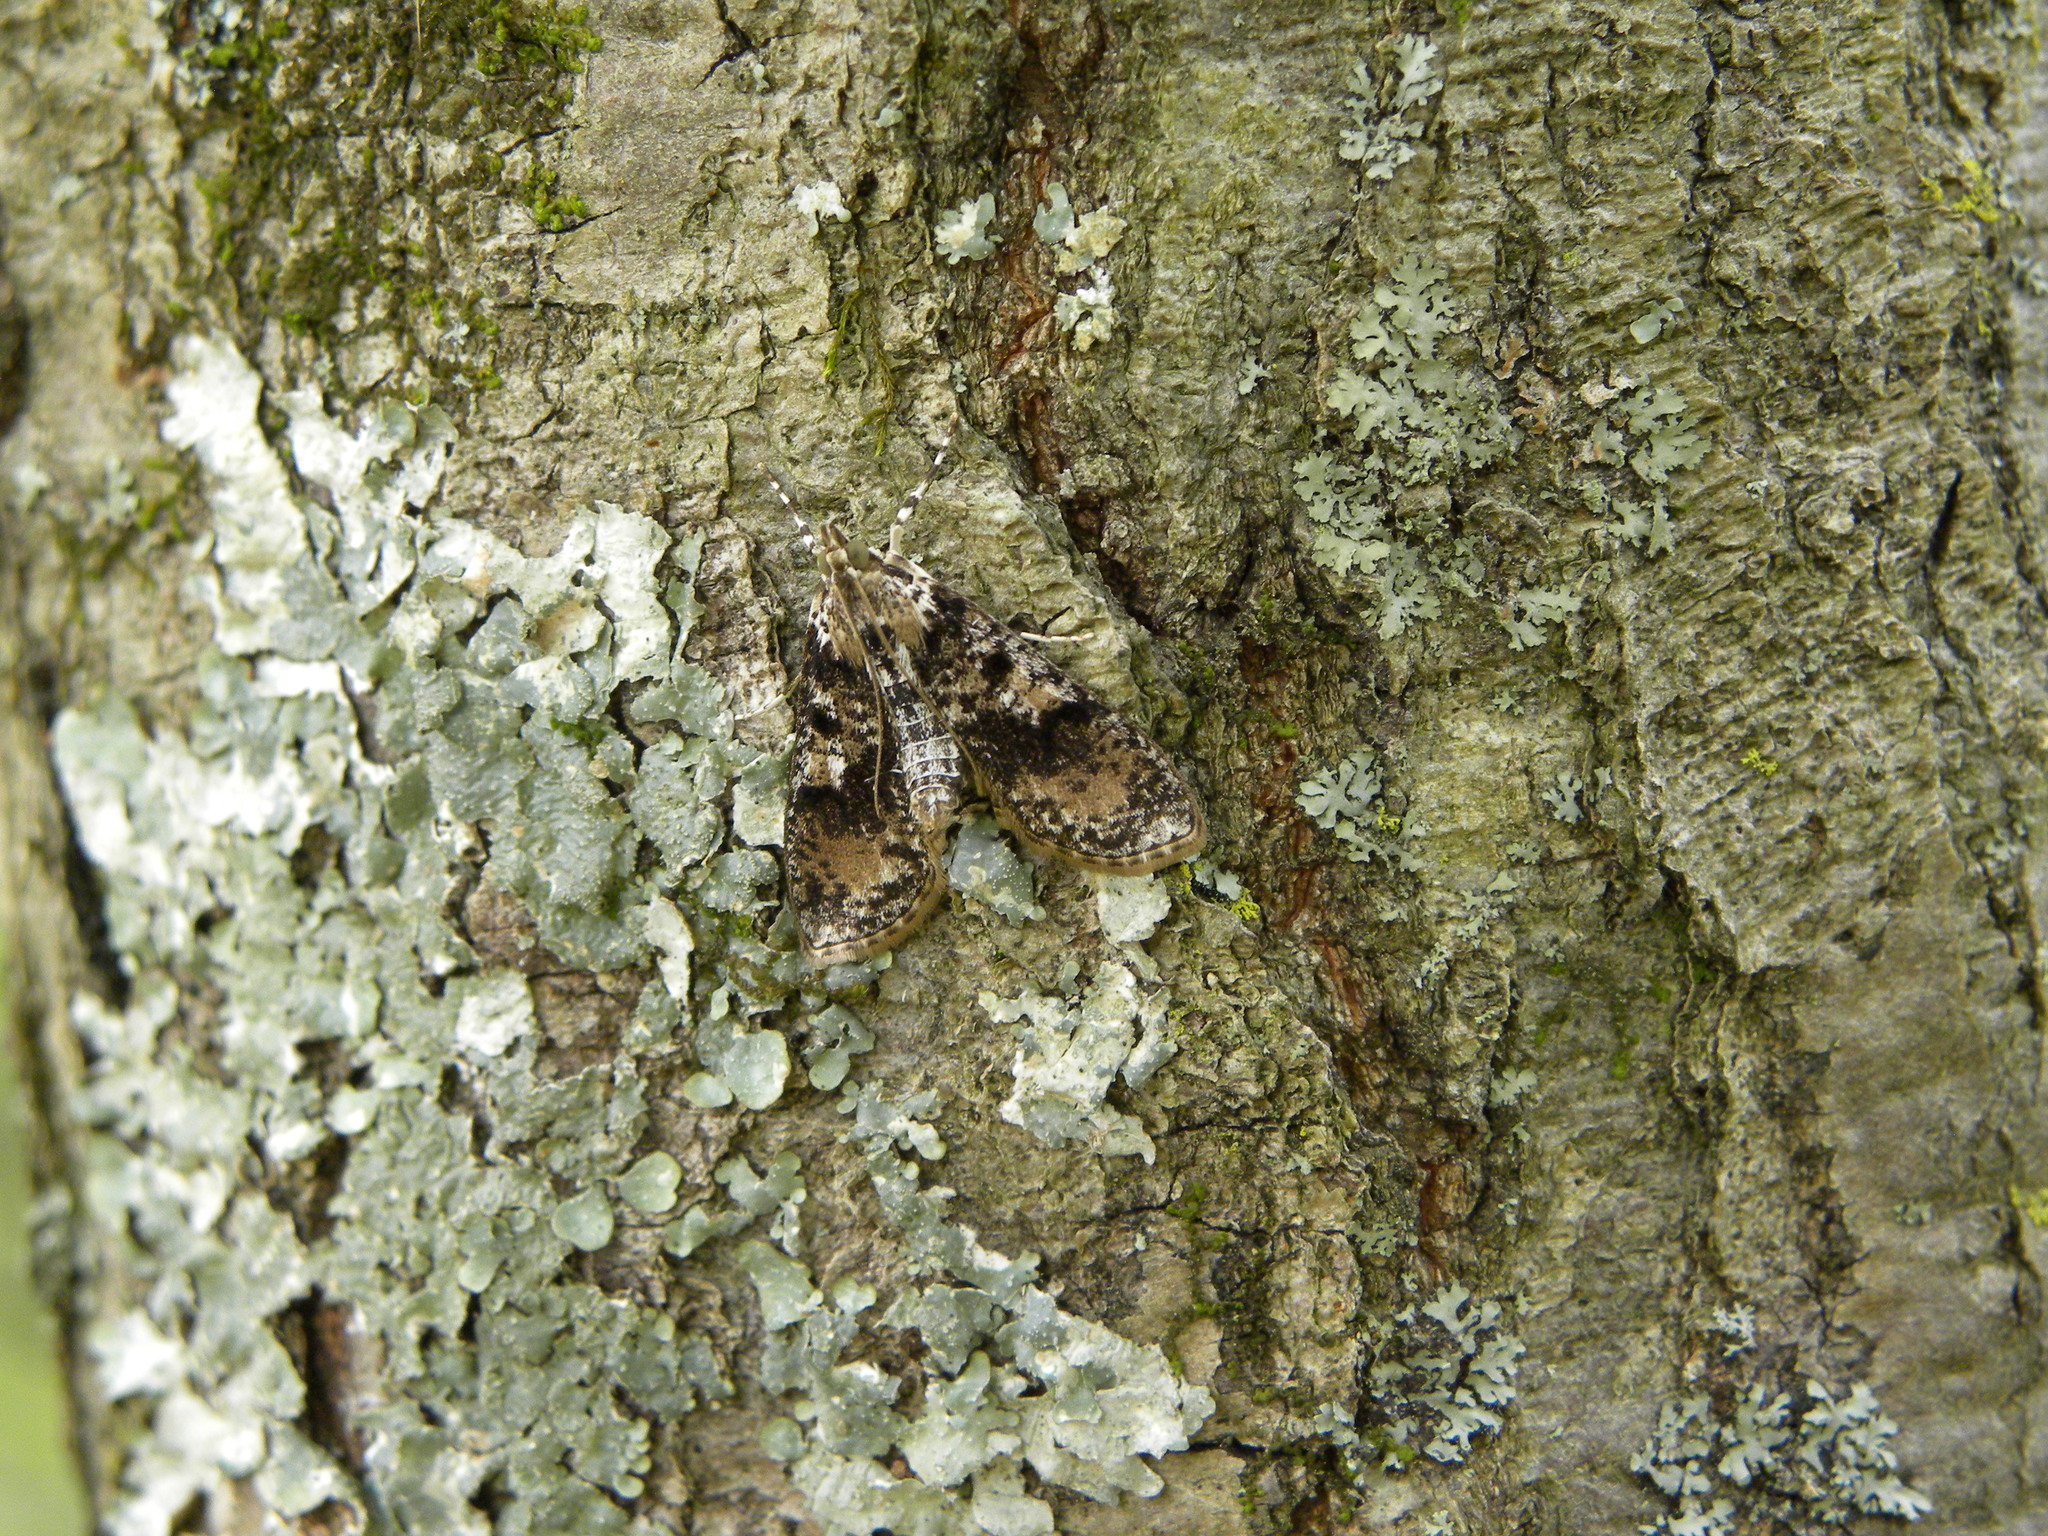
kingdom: Animalia
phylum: Arthropoda
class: Insecta
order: Lepidoptera
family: Crambidae
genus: Palpita
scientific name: Palpita magniferalis
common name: Splendid palpita moth
